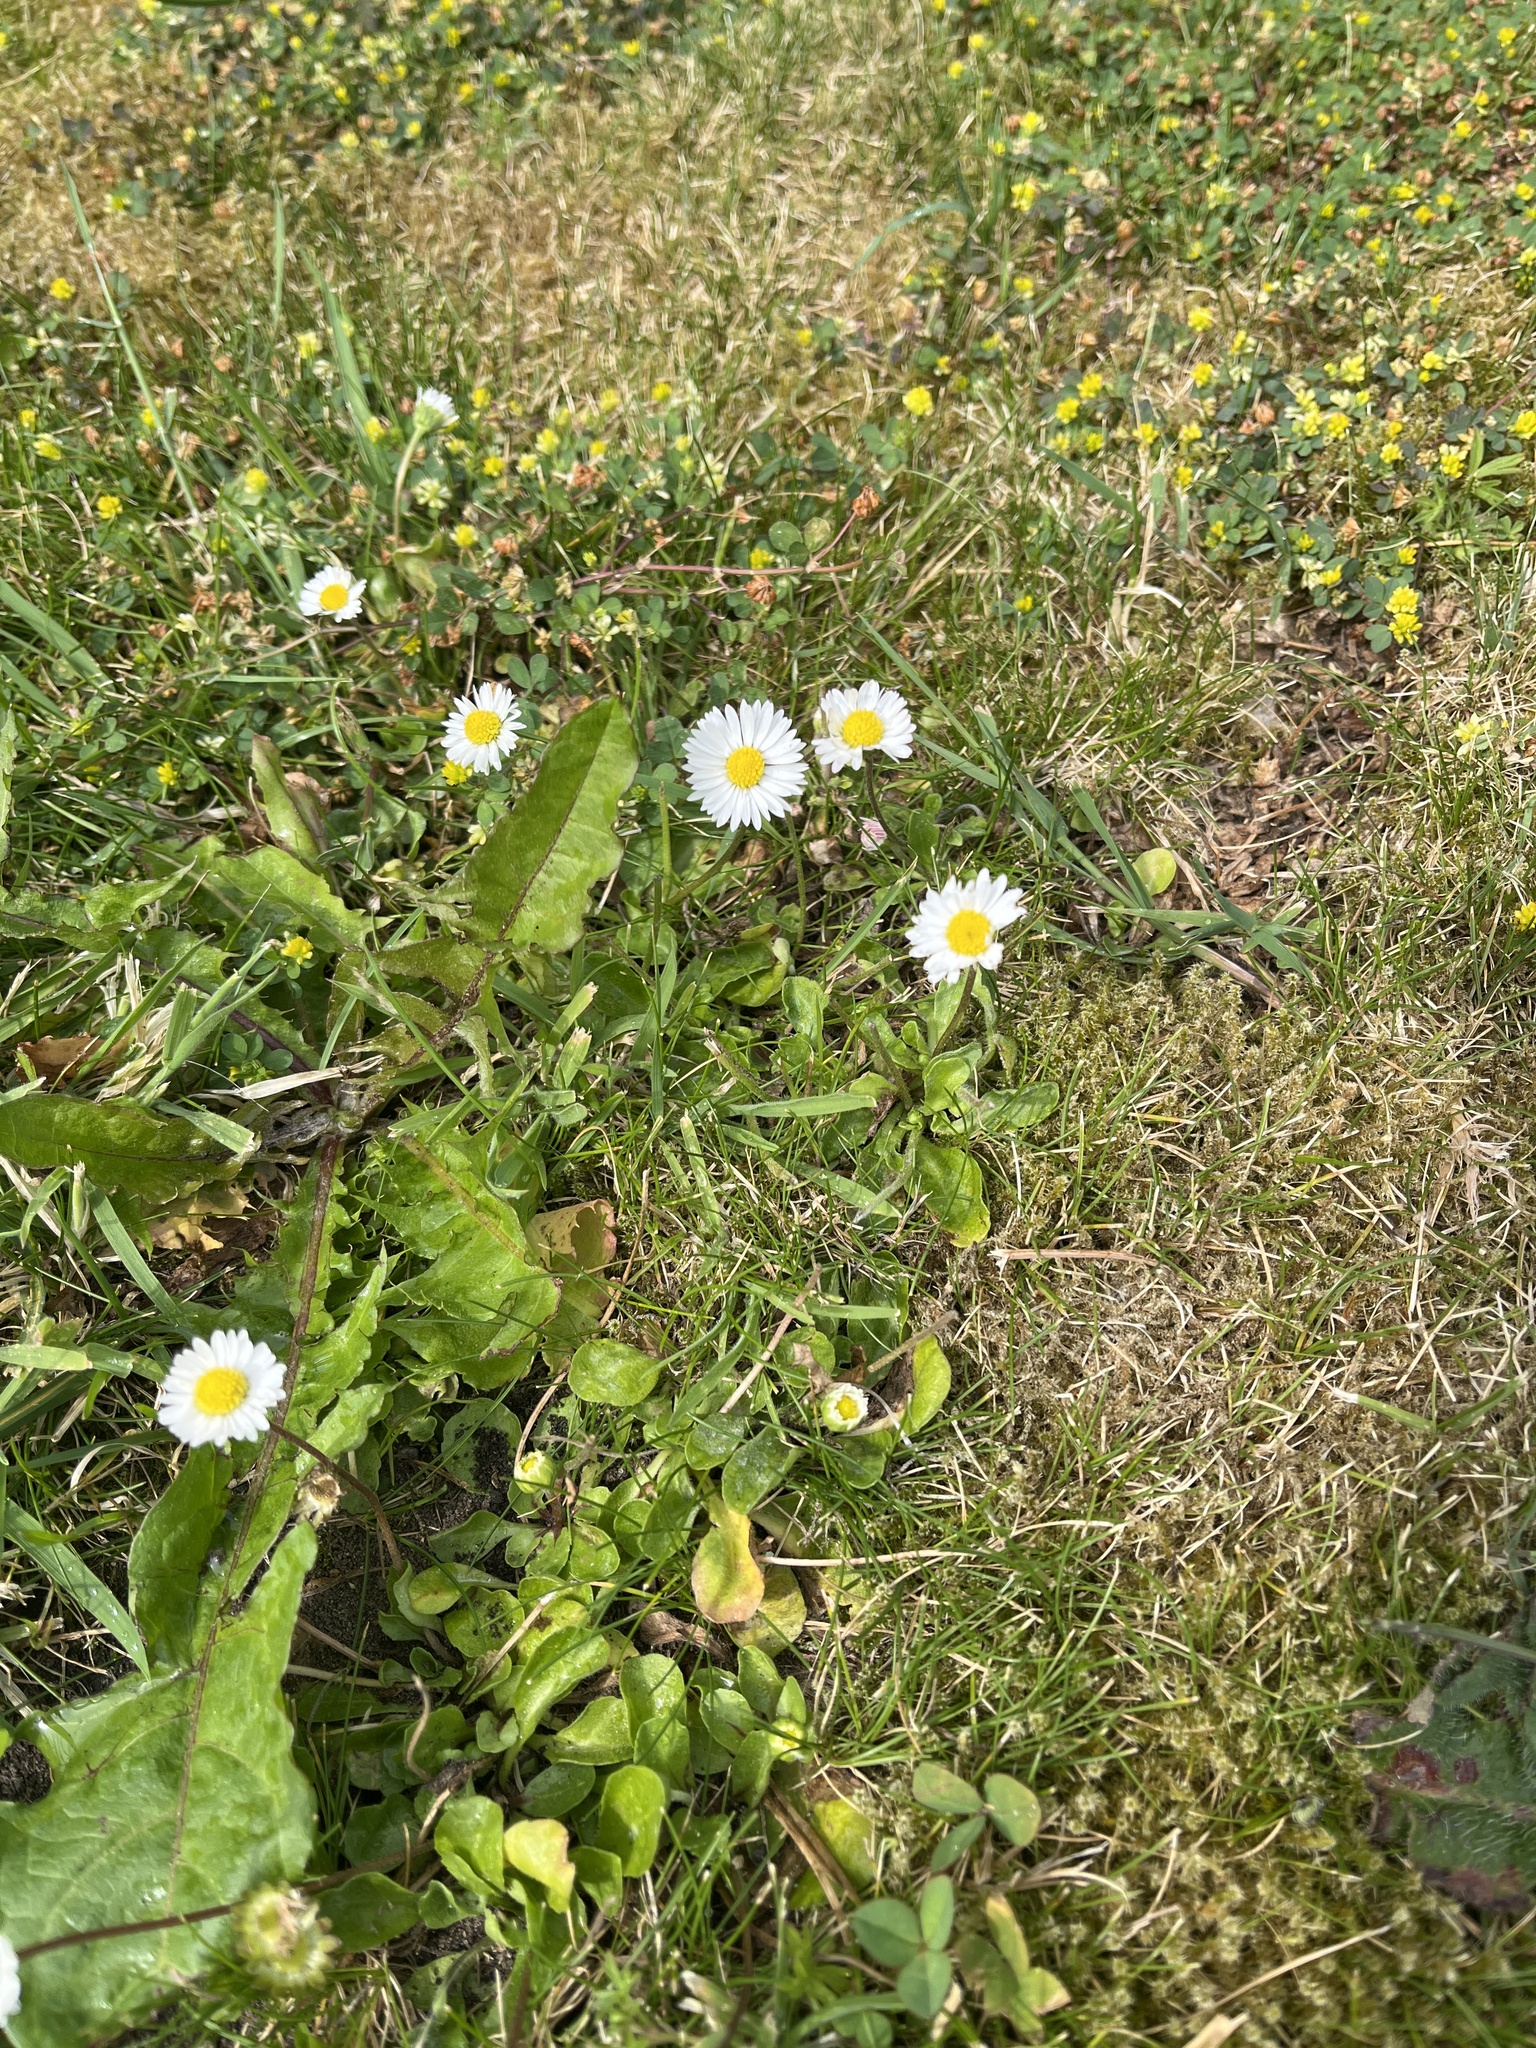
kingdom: Plantae
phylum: Tracheophyta
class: Magnoliopsida
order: Asterales
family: Asteraceae
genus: Bellis
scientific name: Bellis perennis
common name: Lawndaisy
